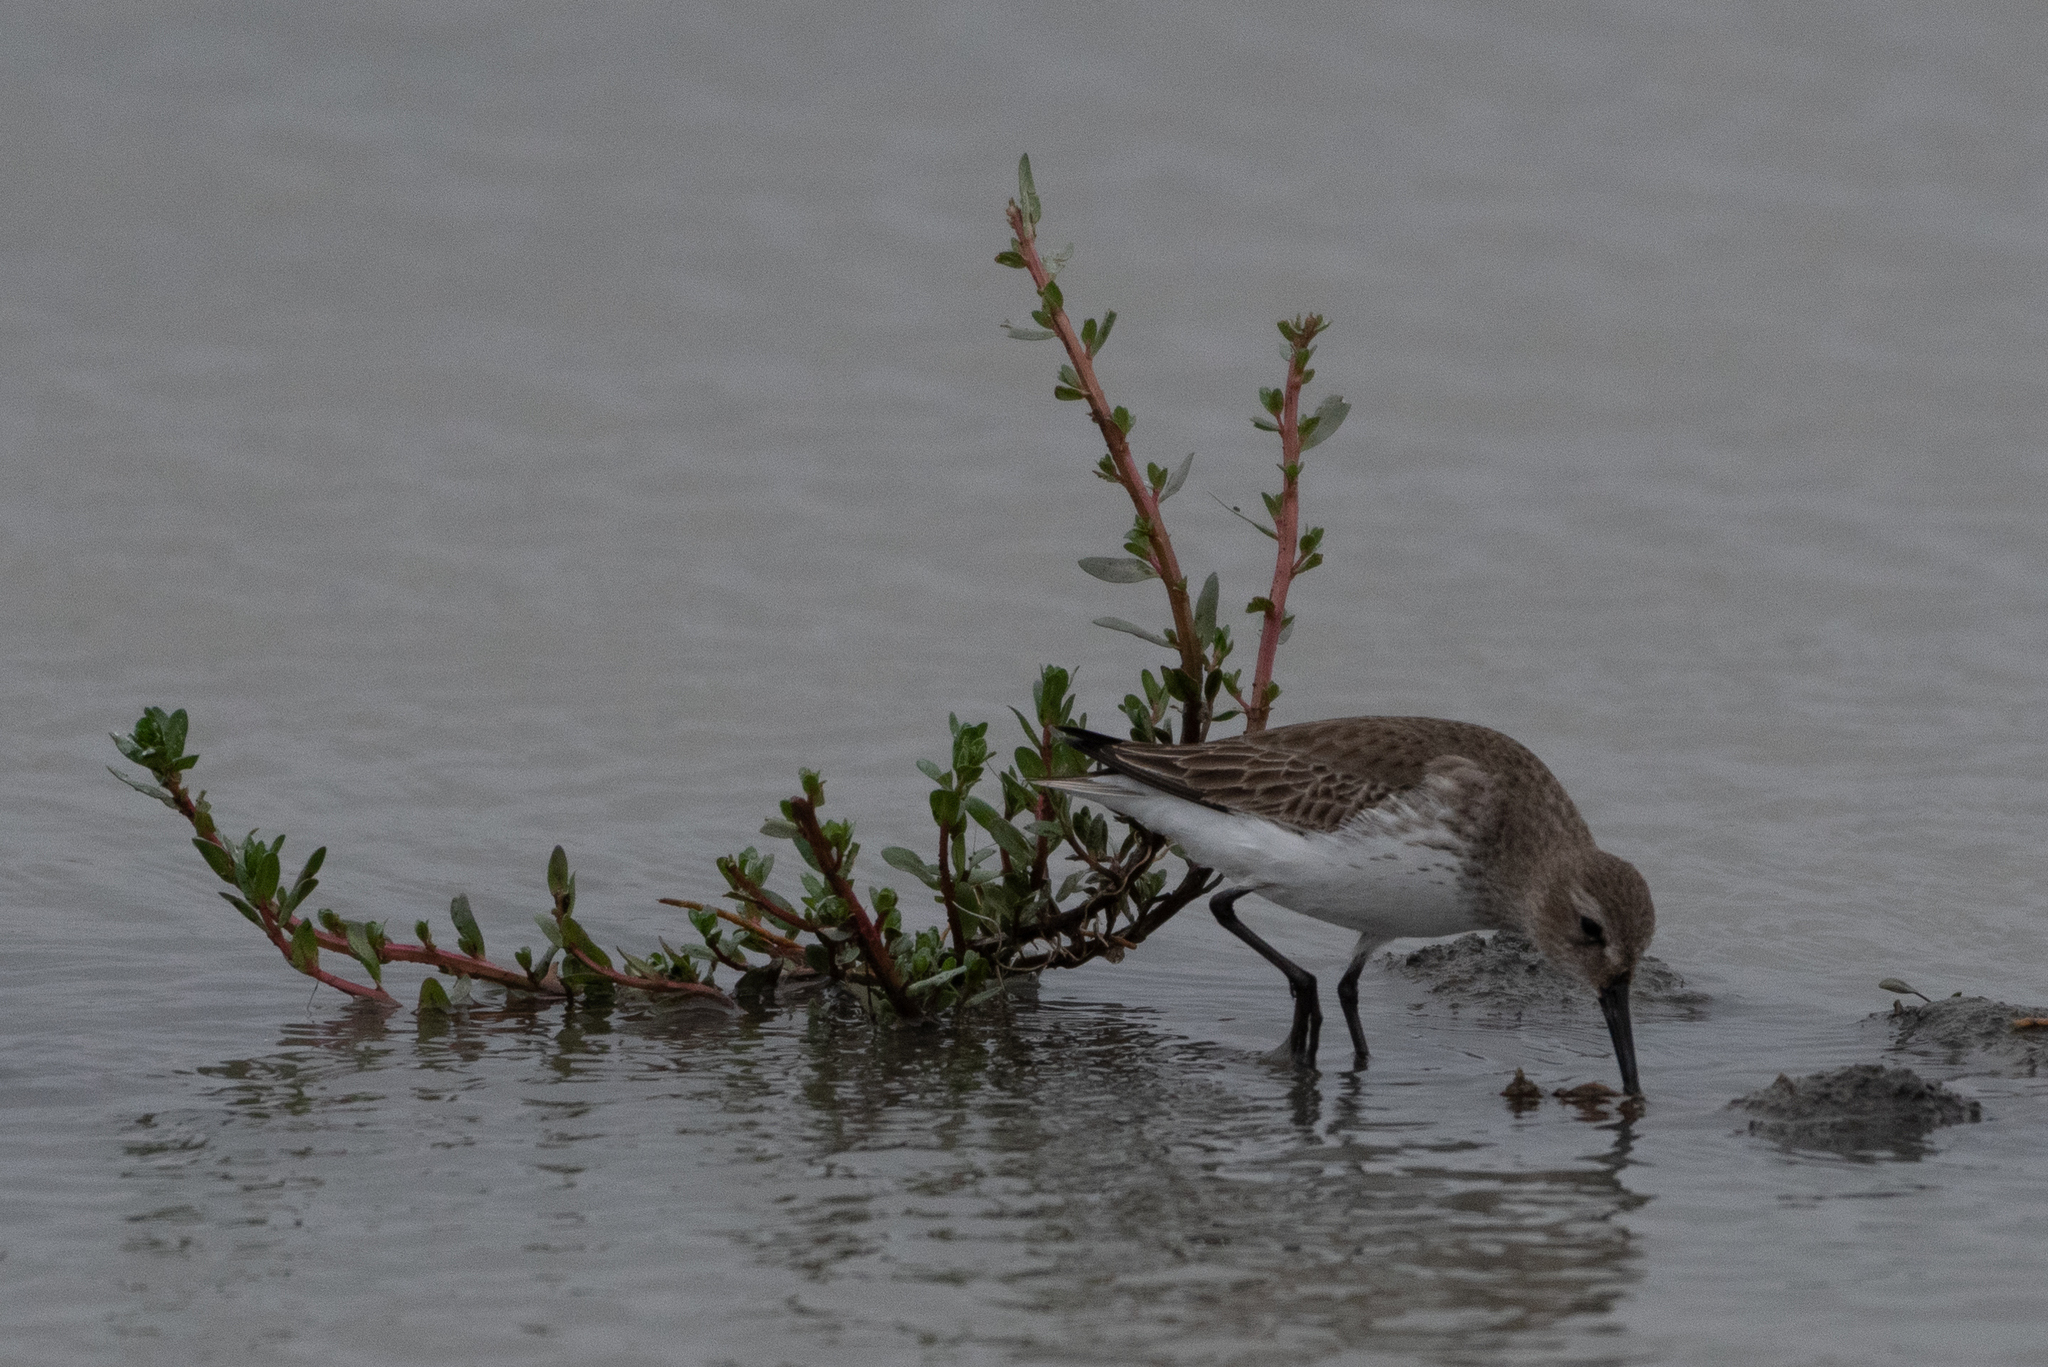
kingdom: Animalia
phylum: Chordata
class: Aves
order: Charadriiformes
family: Scolopacidae
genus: Calidris
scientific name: Calidris alpina
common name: Dunlin
